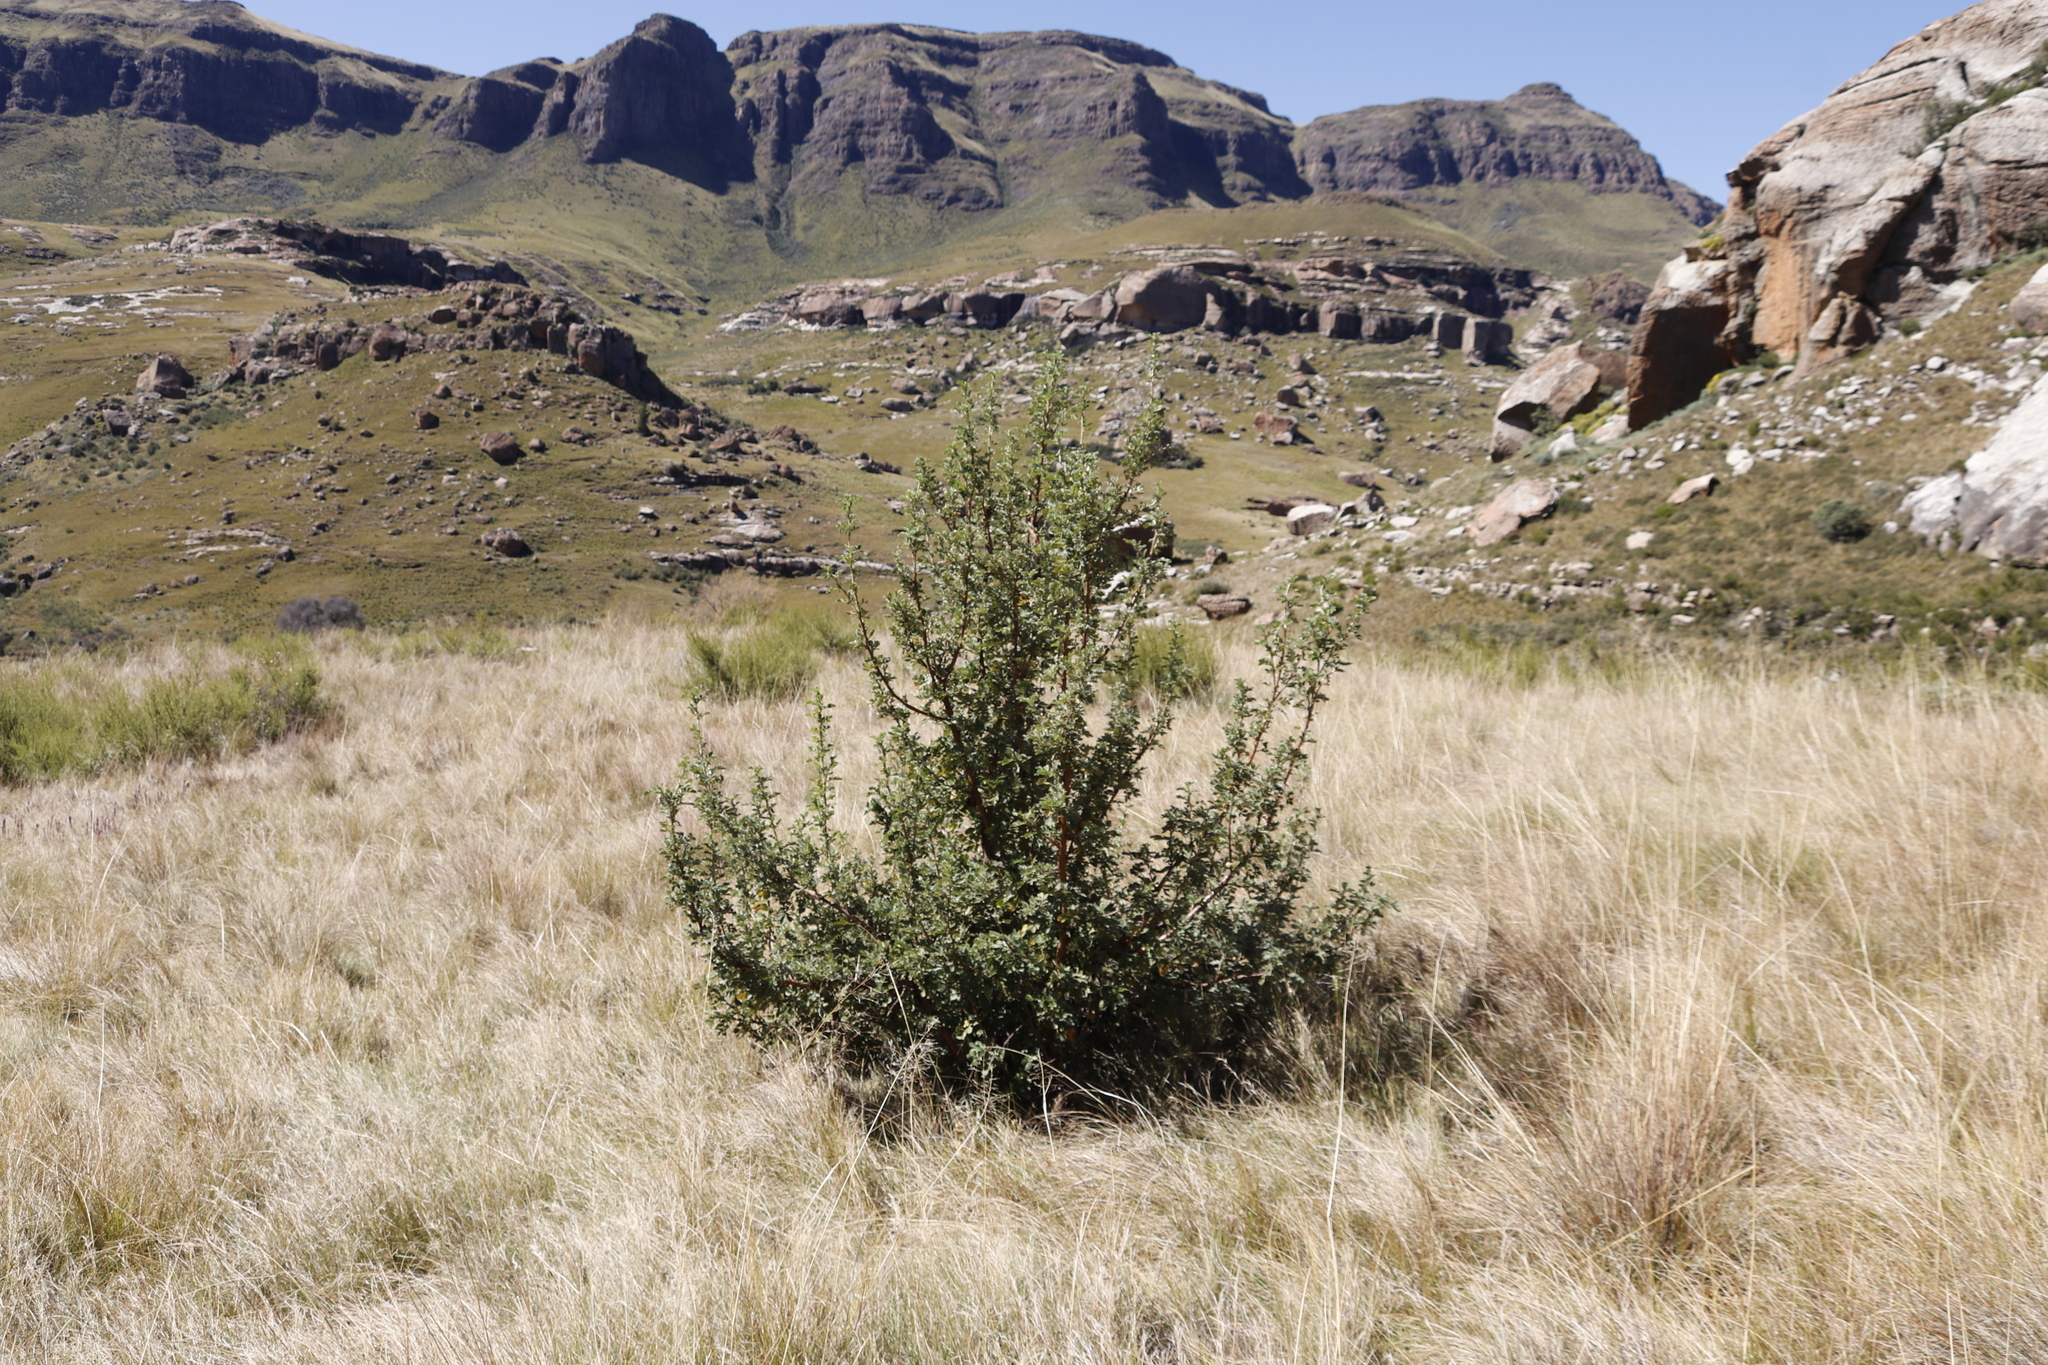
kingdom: Plantae
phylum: Tracheophyta
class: Magnoliopsida
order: Rosales
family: Rosaceae
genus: Leucosidea
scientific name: Leucosidea sericea
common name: Oldwood
